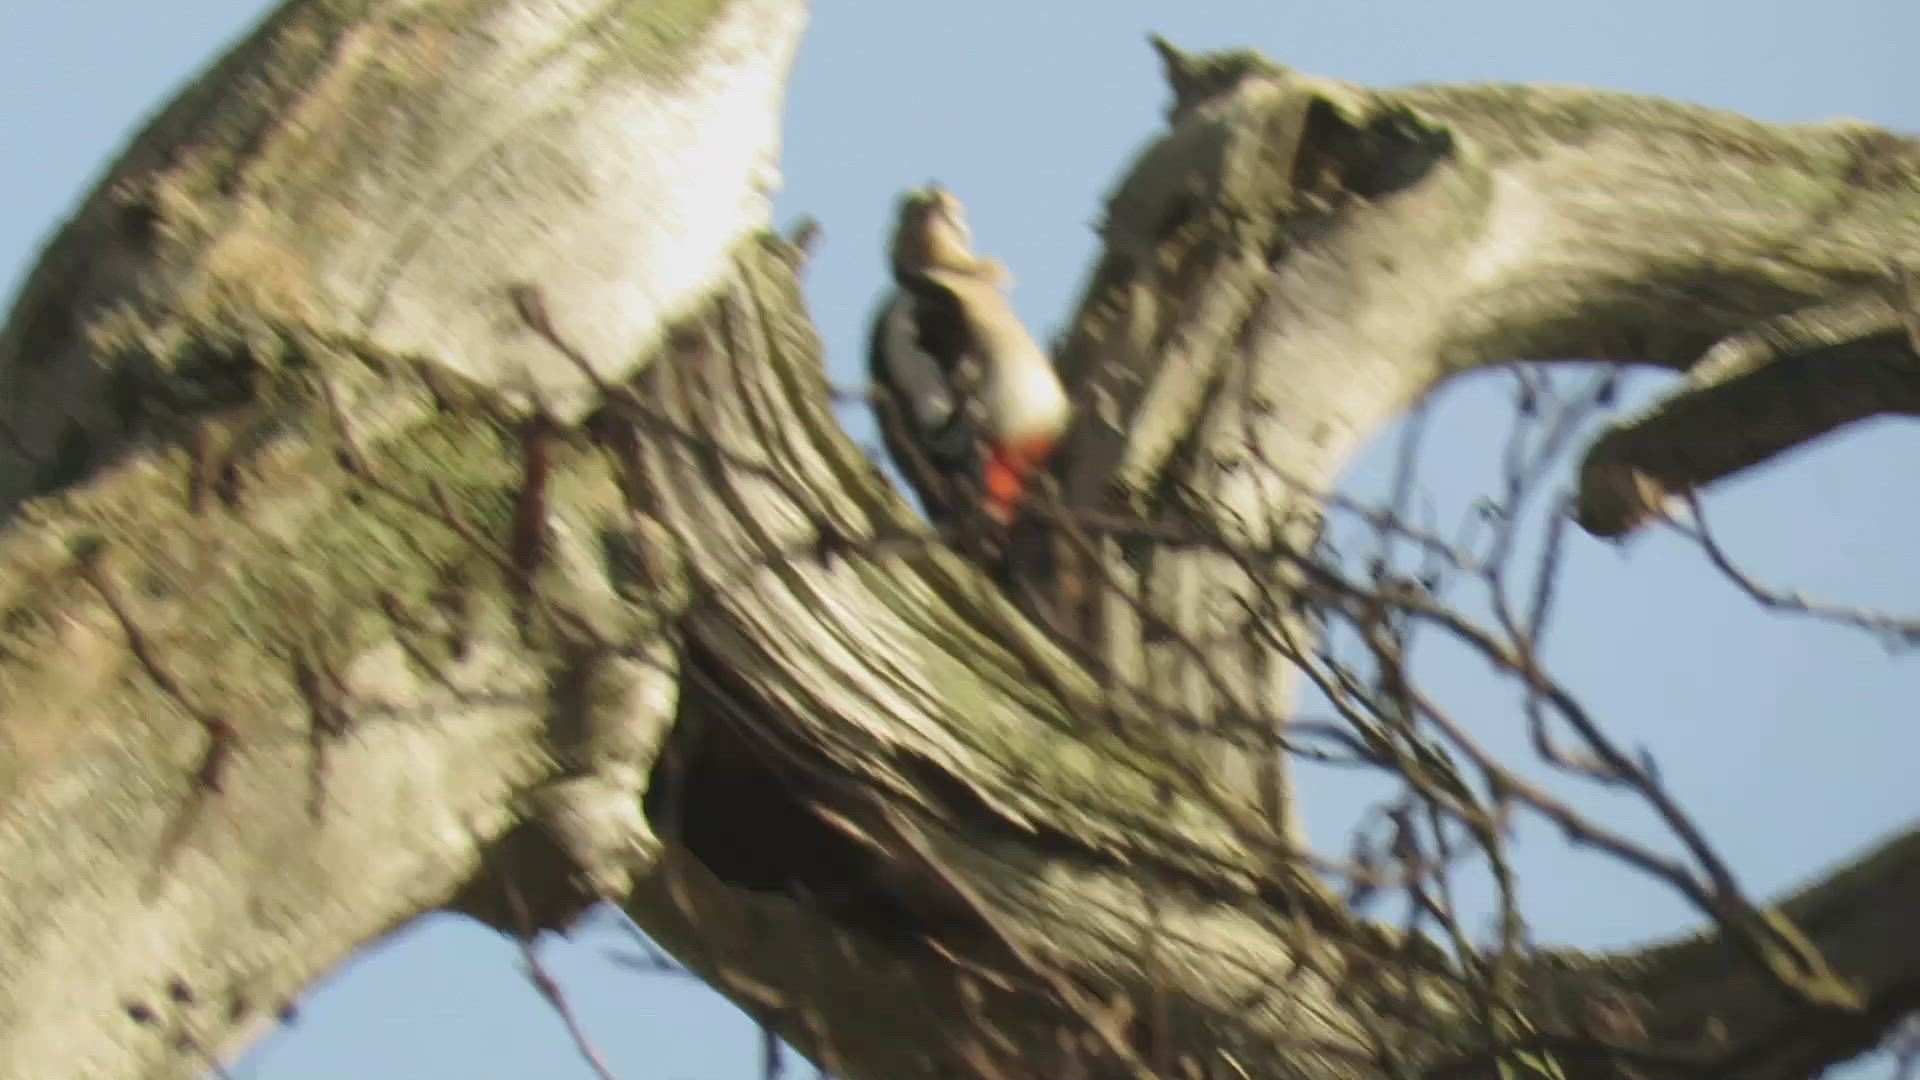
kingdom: Animalia
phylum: Chordata
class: Aves
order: Piciformes
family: Picidae
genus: Dendrocopos
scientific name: Dendrocopos major
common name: Great spotted woodpecker
